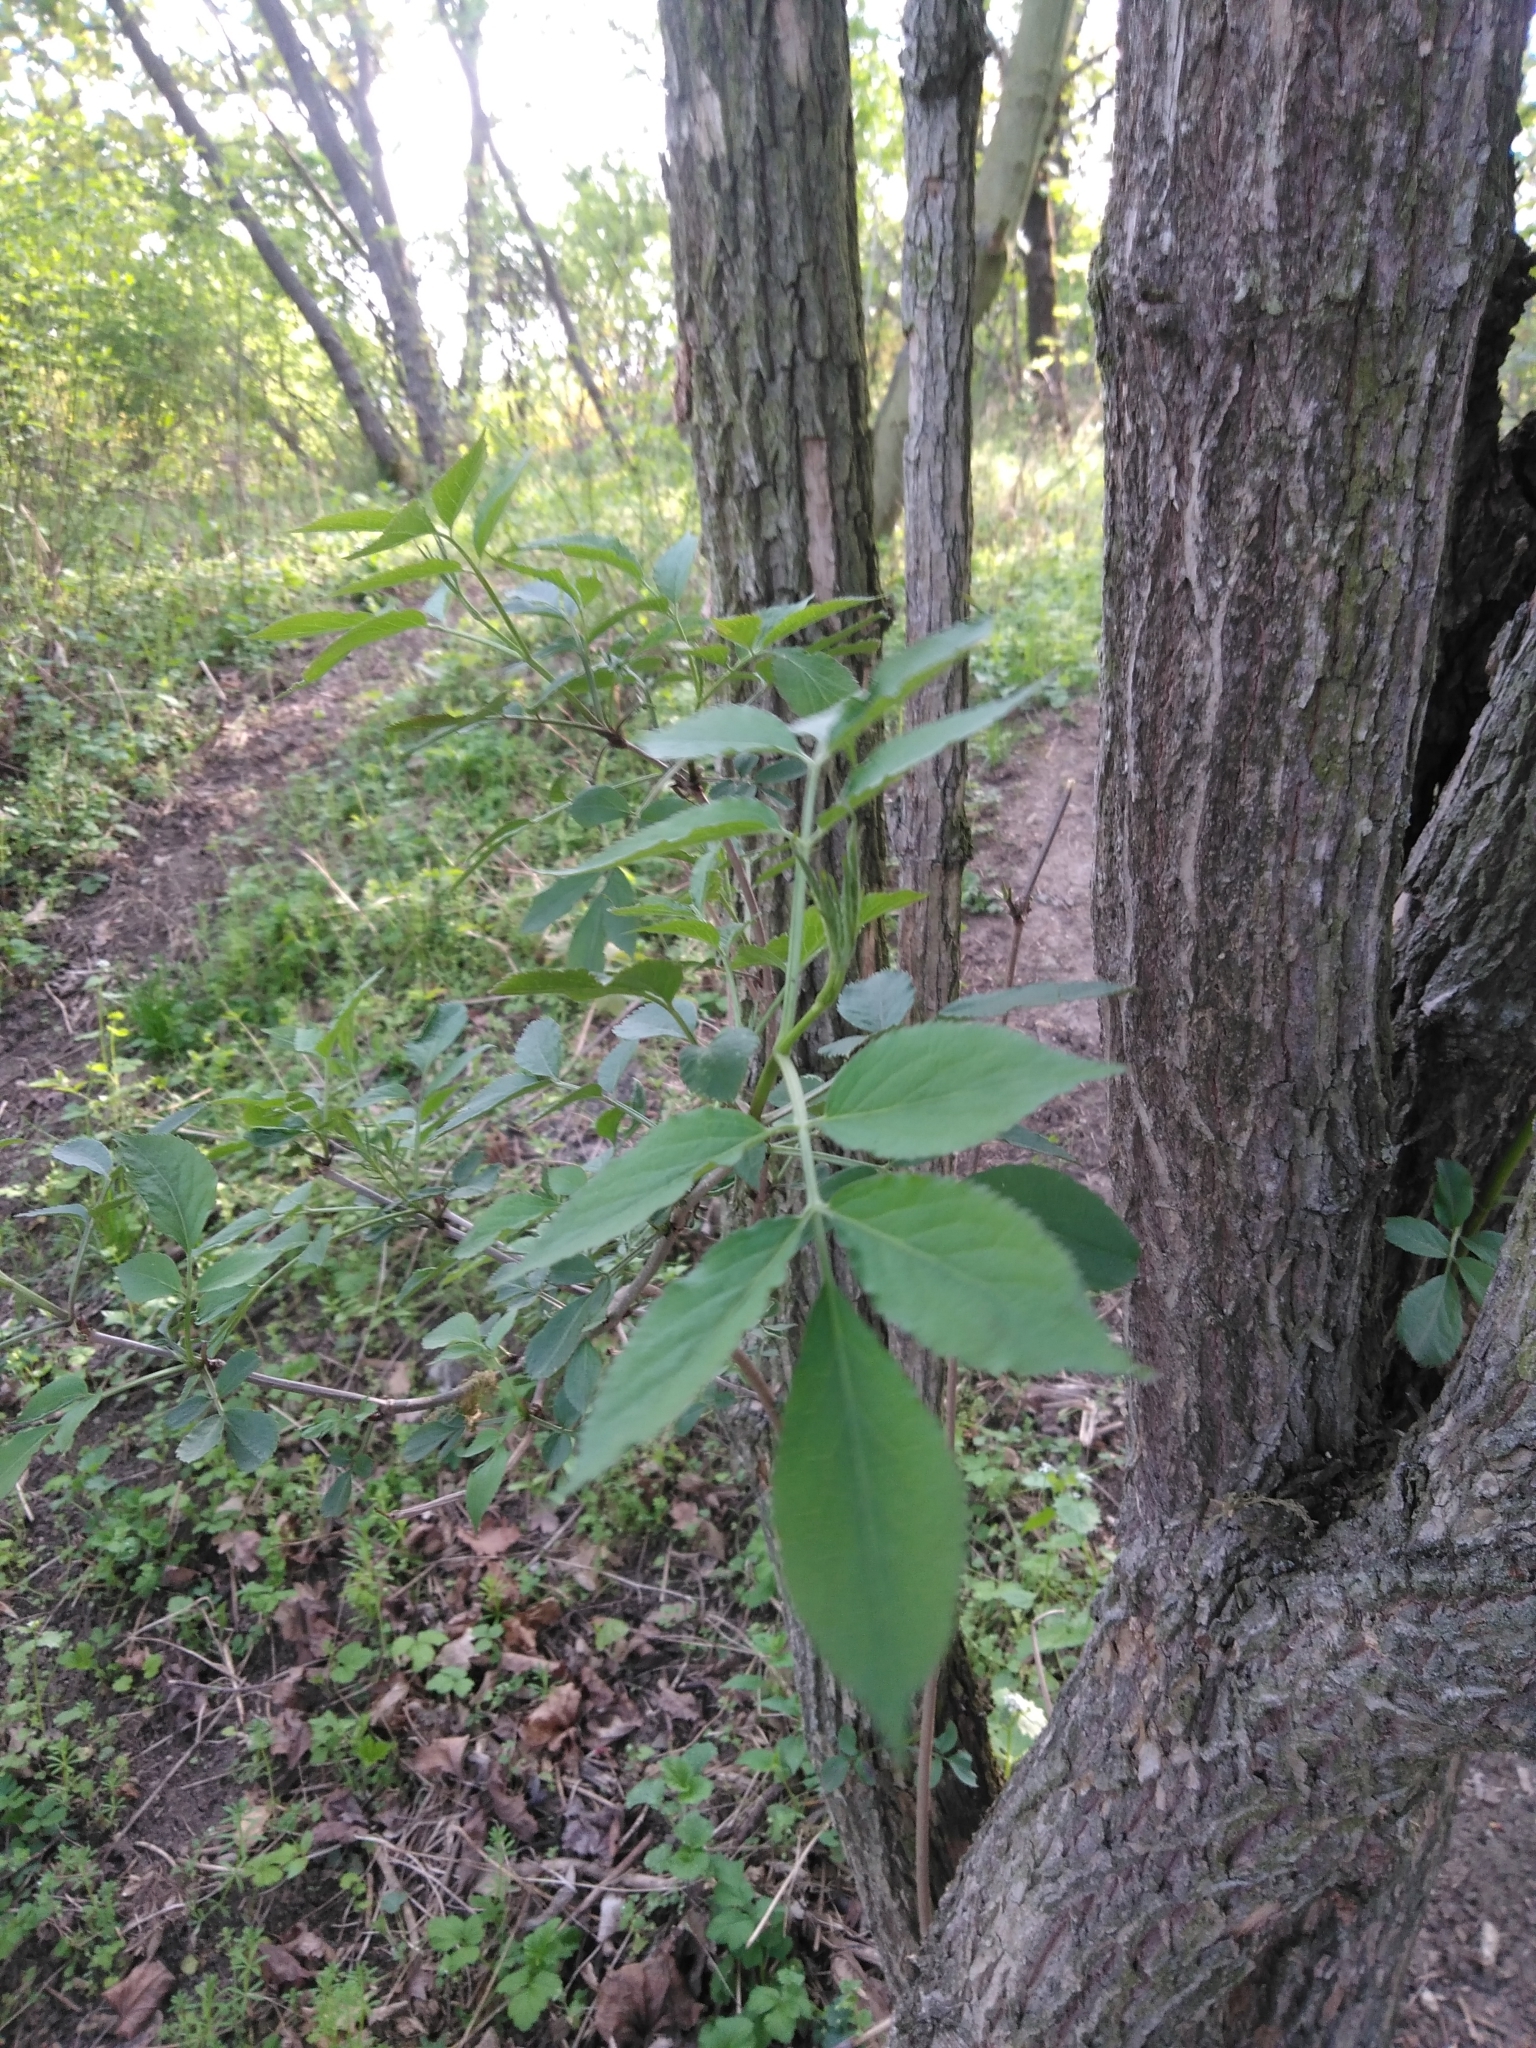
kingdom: Plantae
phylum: Tracheophyta
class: Magnoliopsida
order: Dipsacales
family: Viburnaceae
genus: Sambucus
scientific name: Sambucus nigra
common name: Elder
